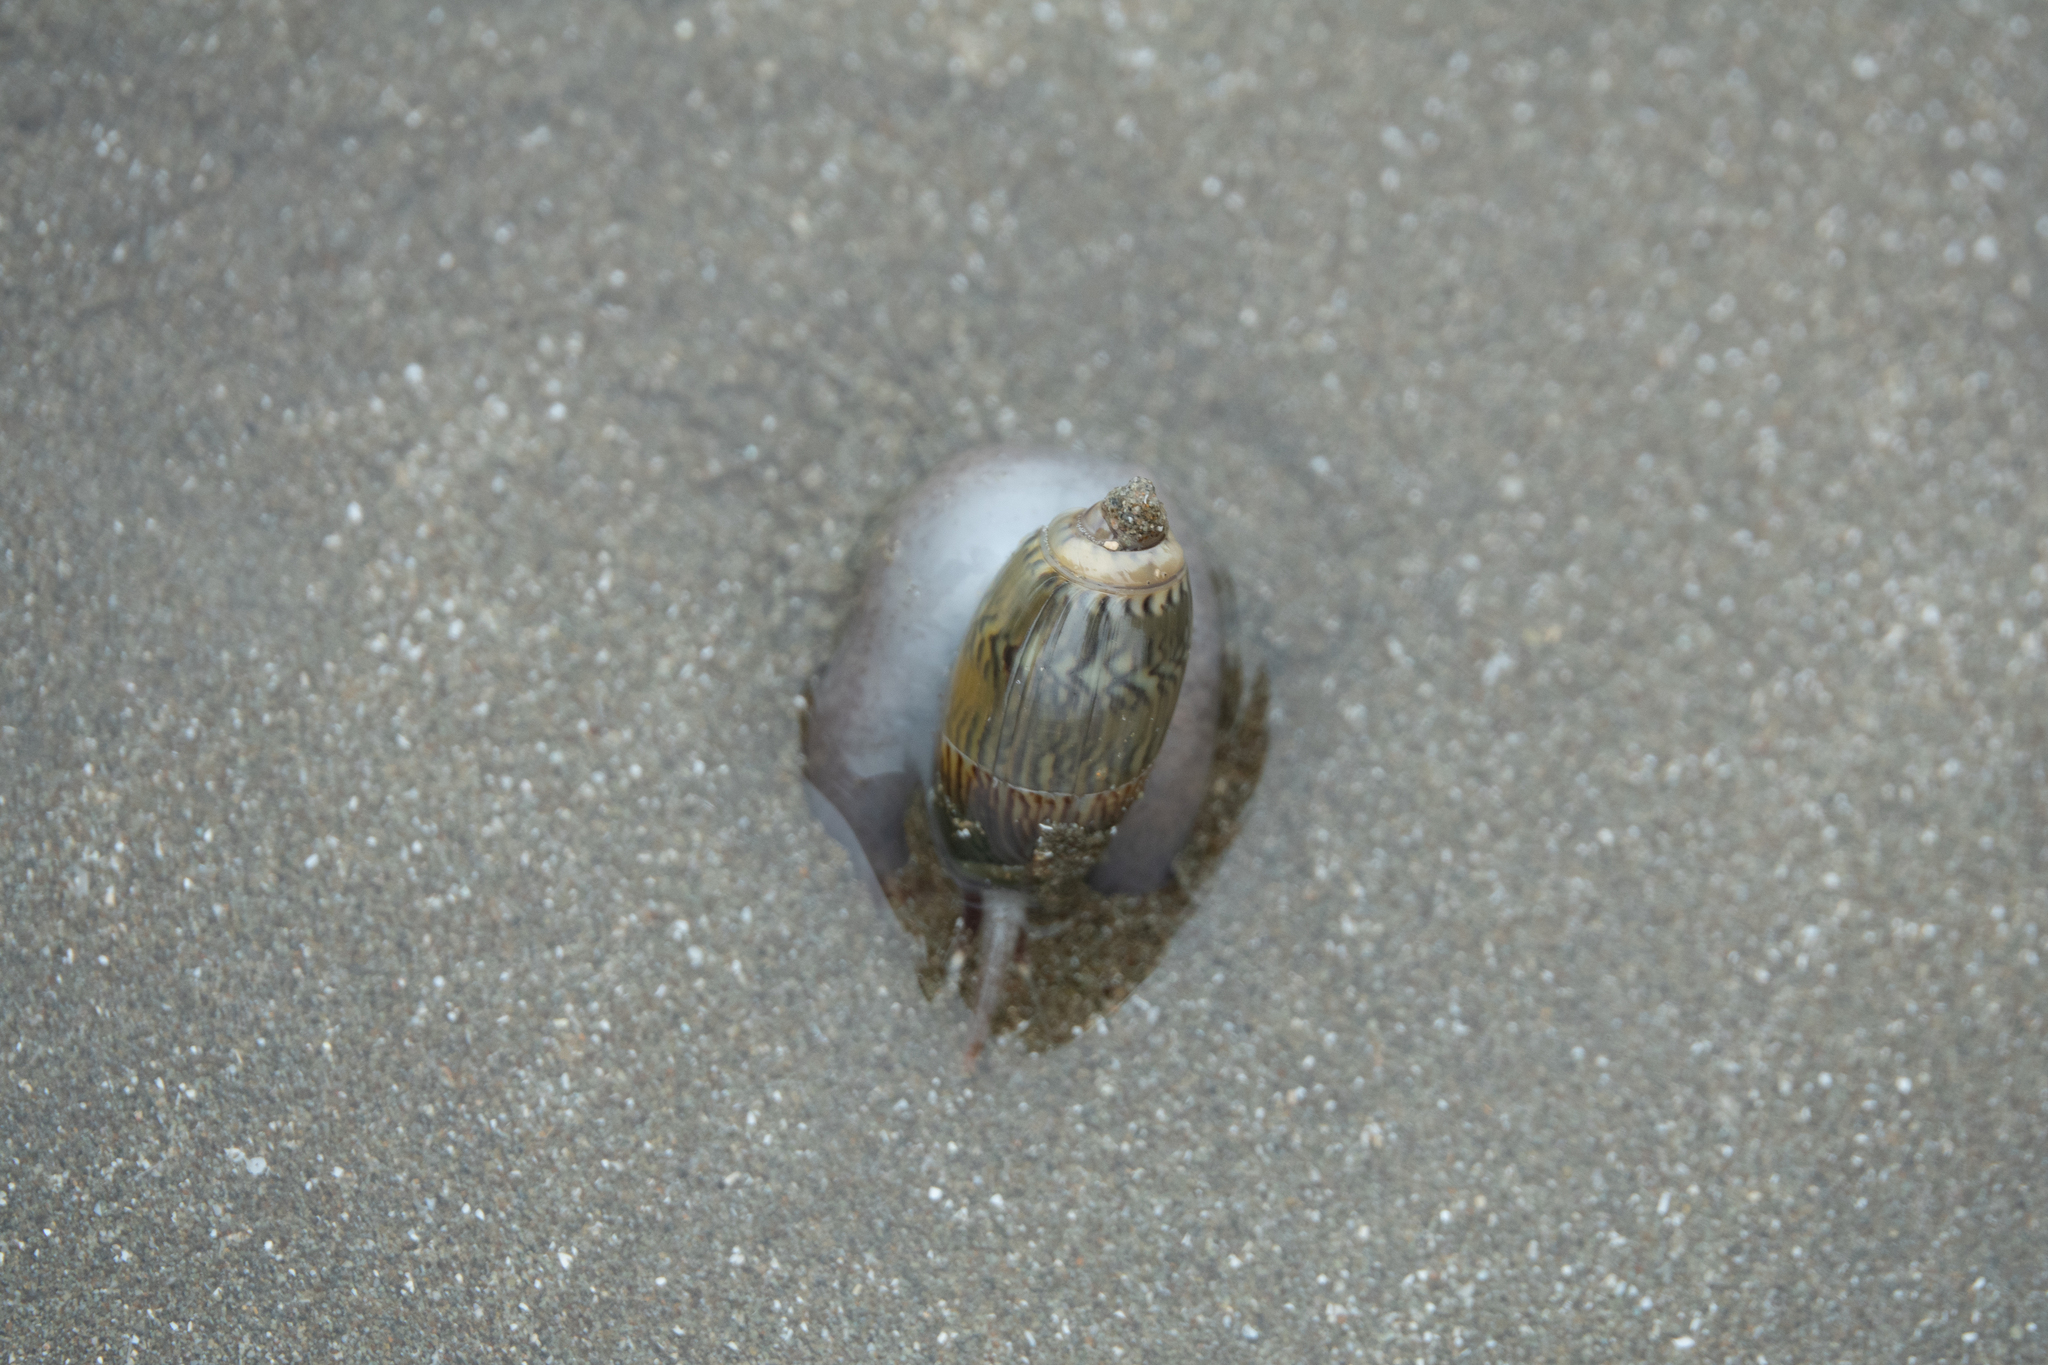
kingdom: Animalia
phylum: Mollusca
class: Gastropoda
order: Neogastropoda
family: Olividae
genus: Oliva
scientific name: Oliva undatella
